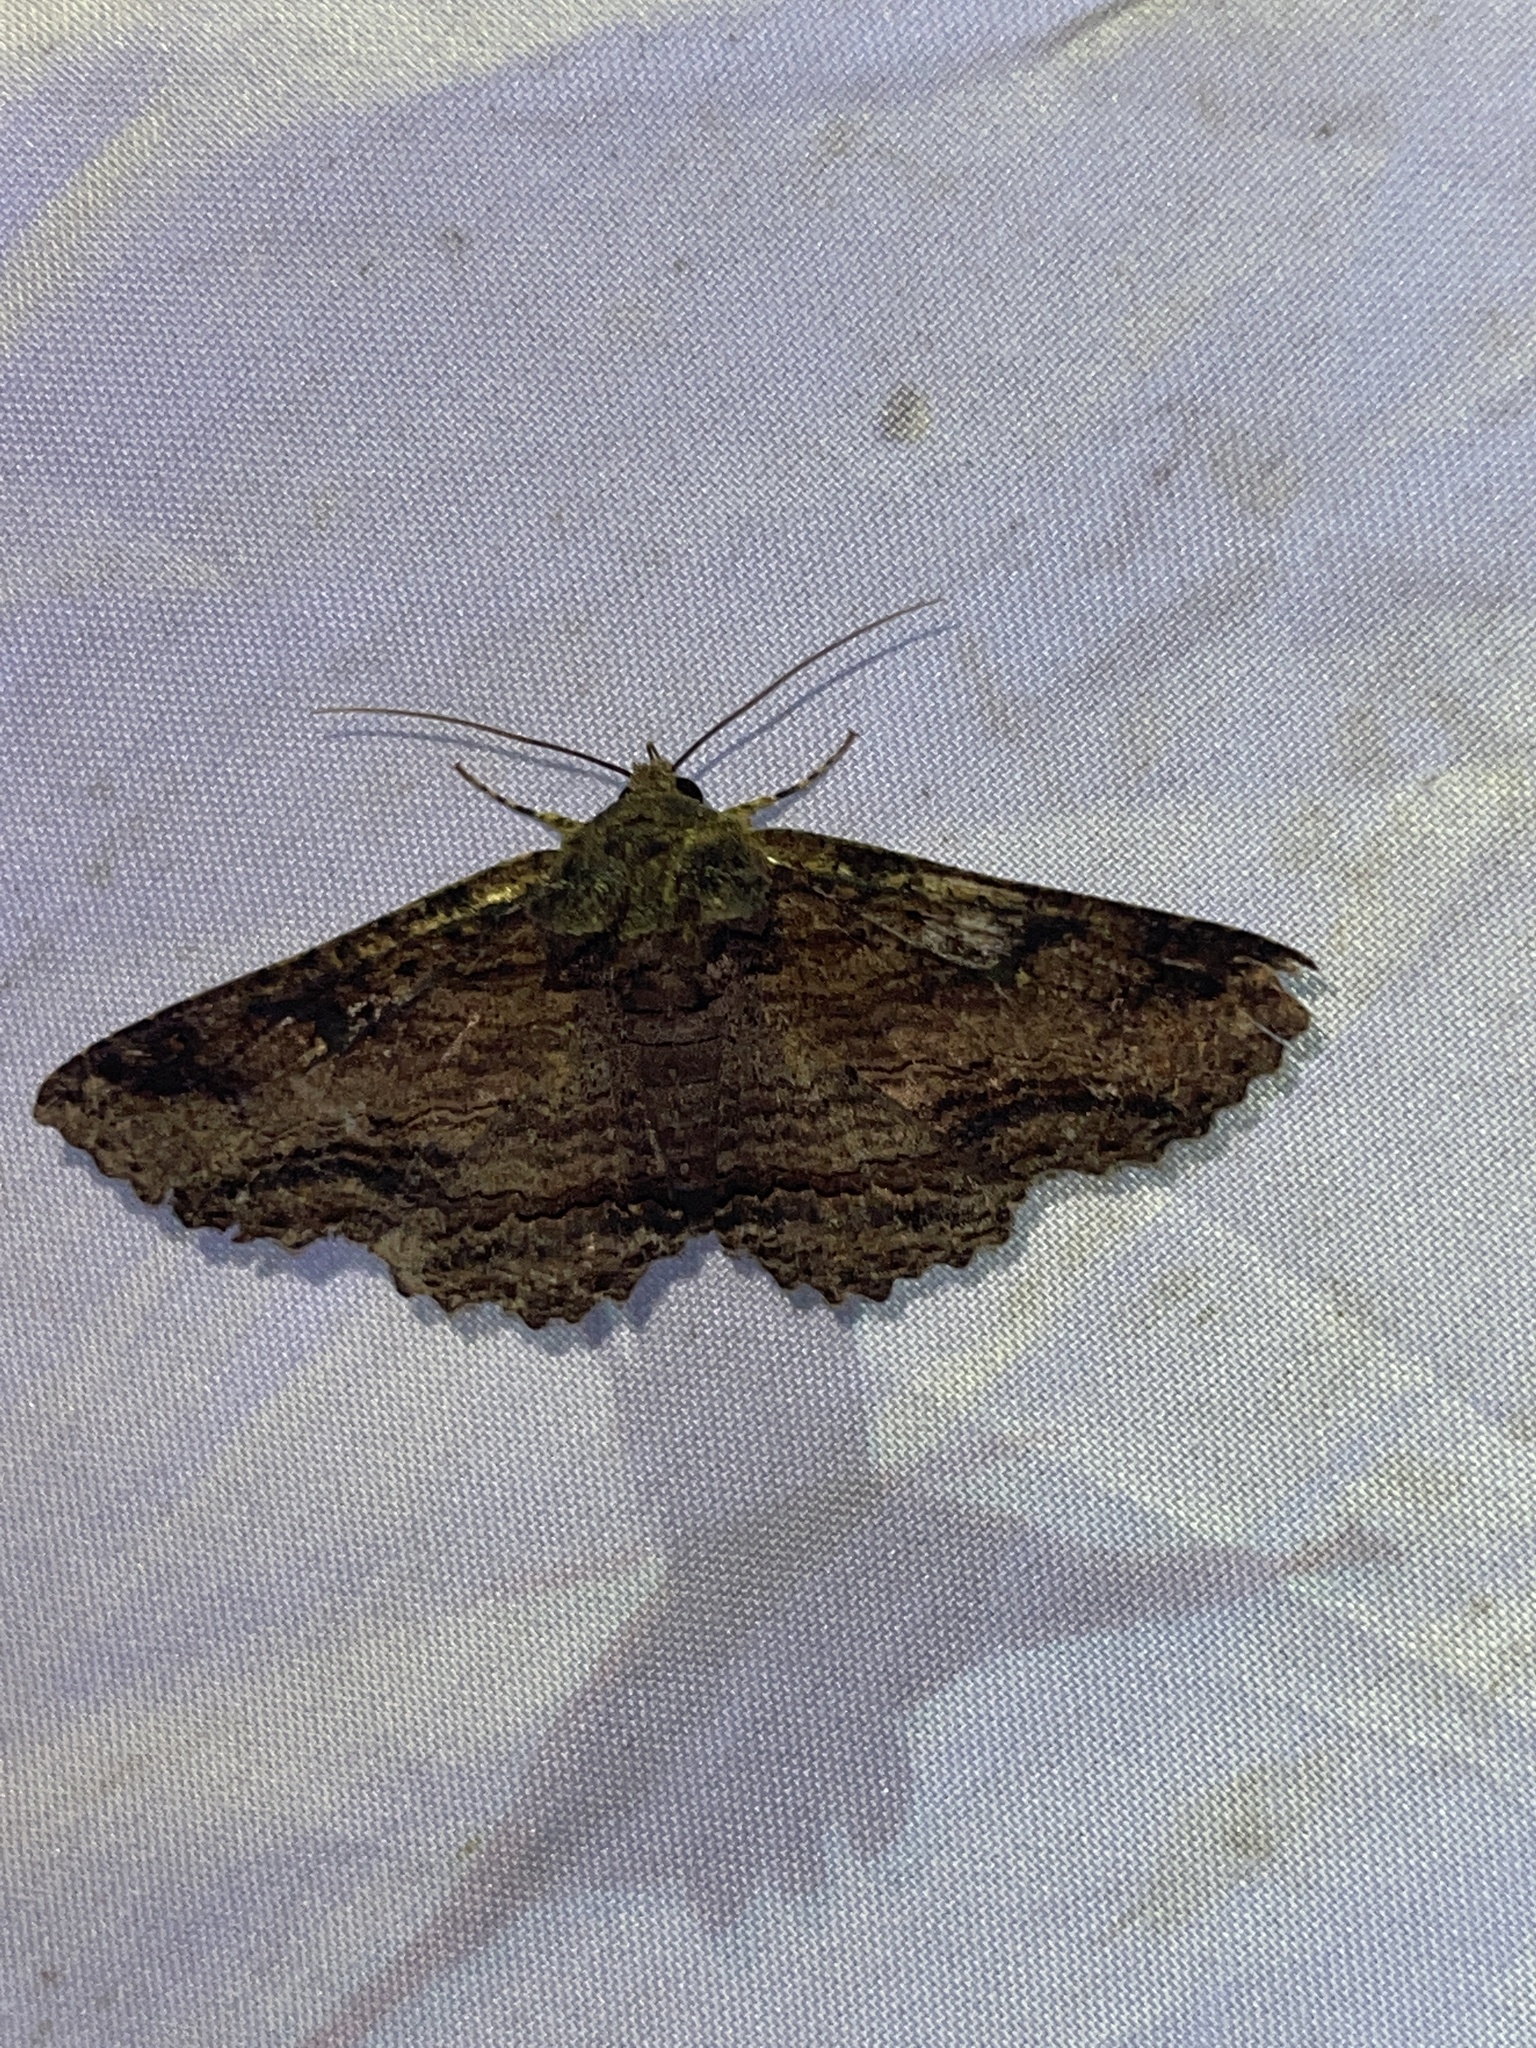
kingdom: Animalia
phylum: Arthropoda
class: Insecta
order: Lepidoptera
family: Erebidae
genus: Zale
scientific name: Zale lunata
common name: Lunate zale moth
